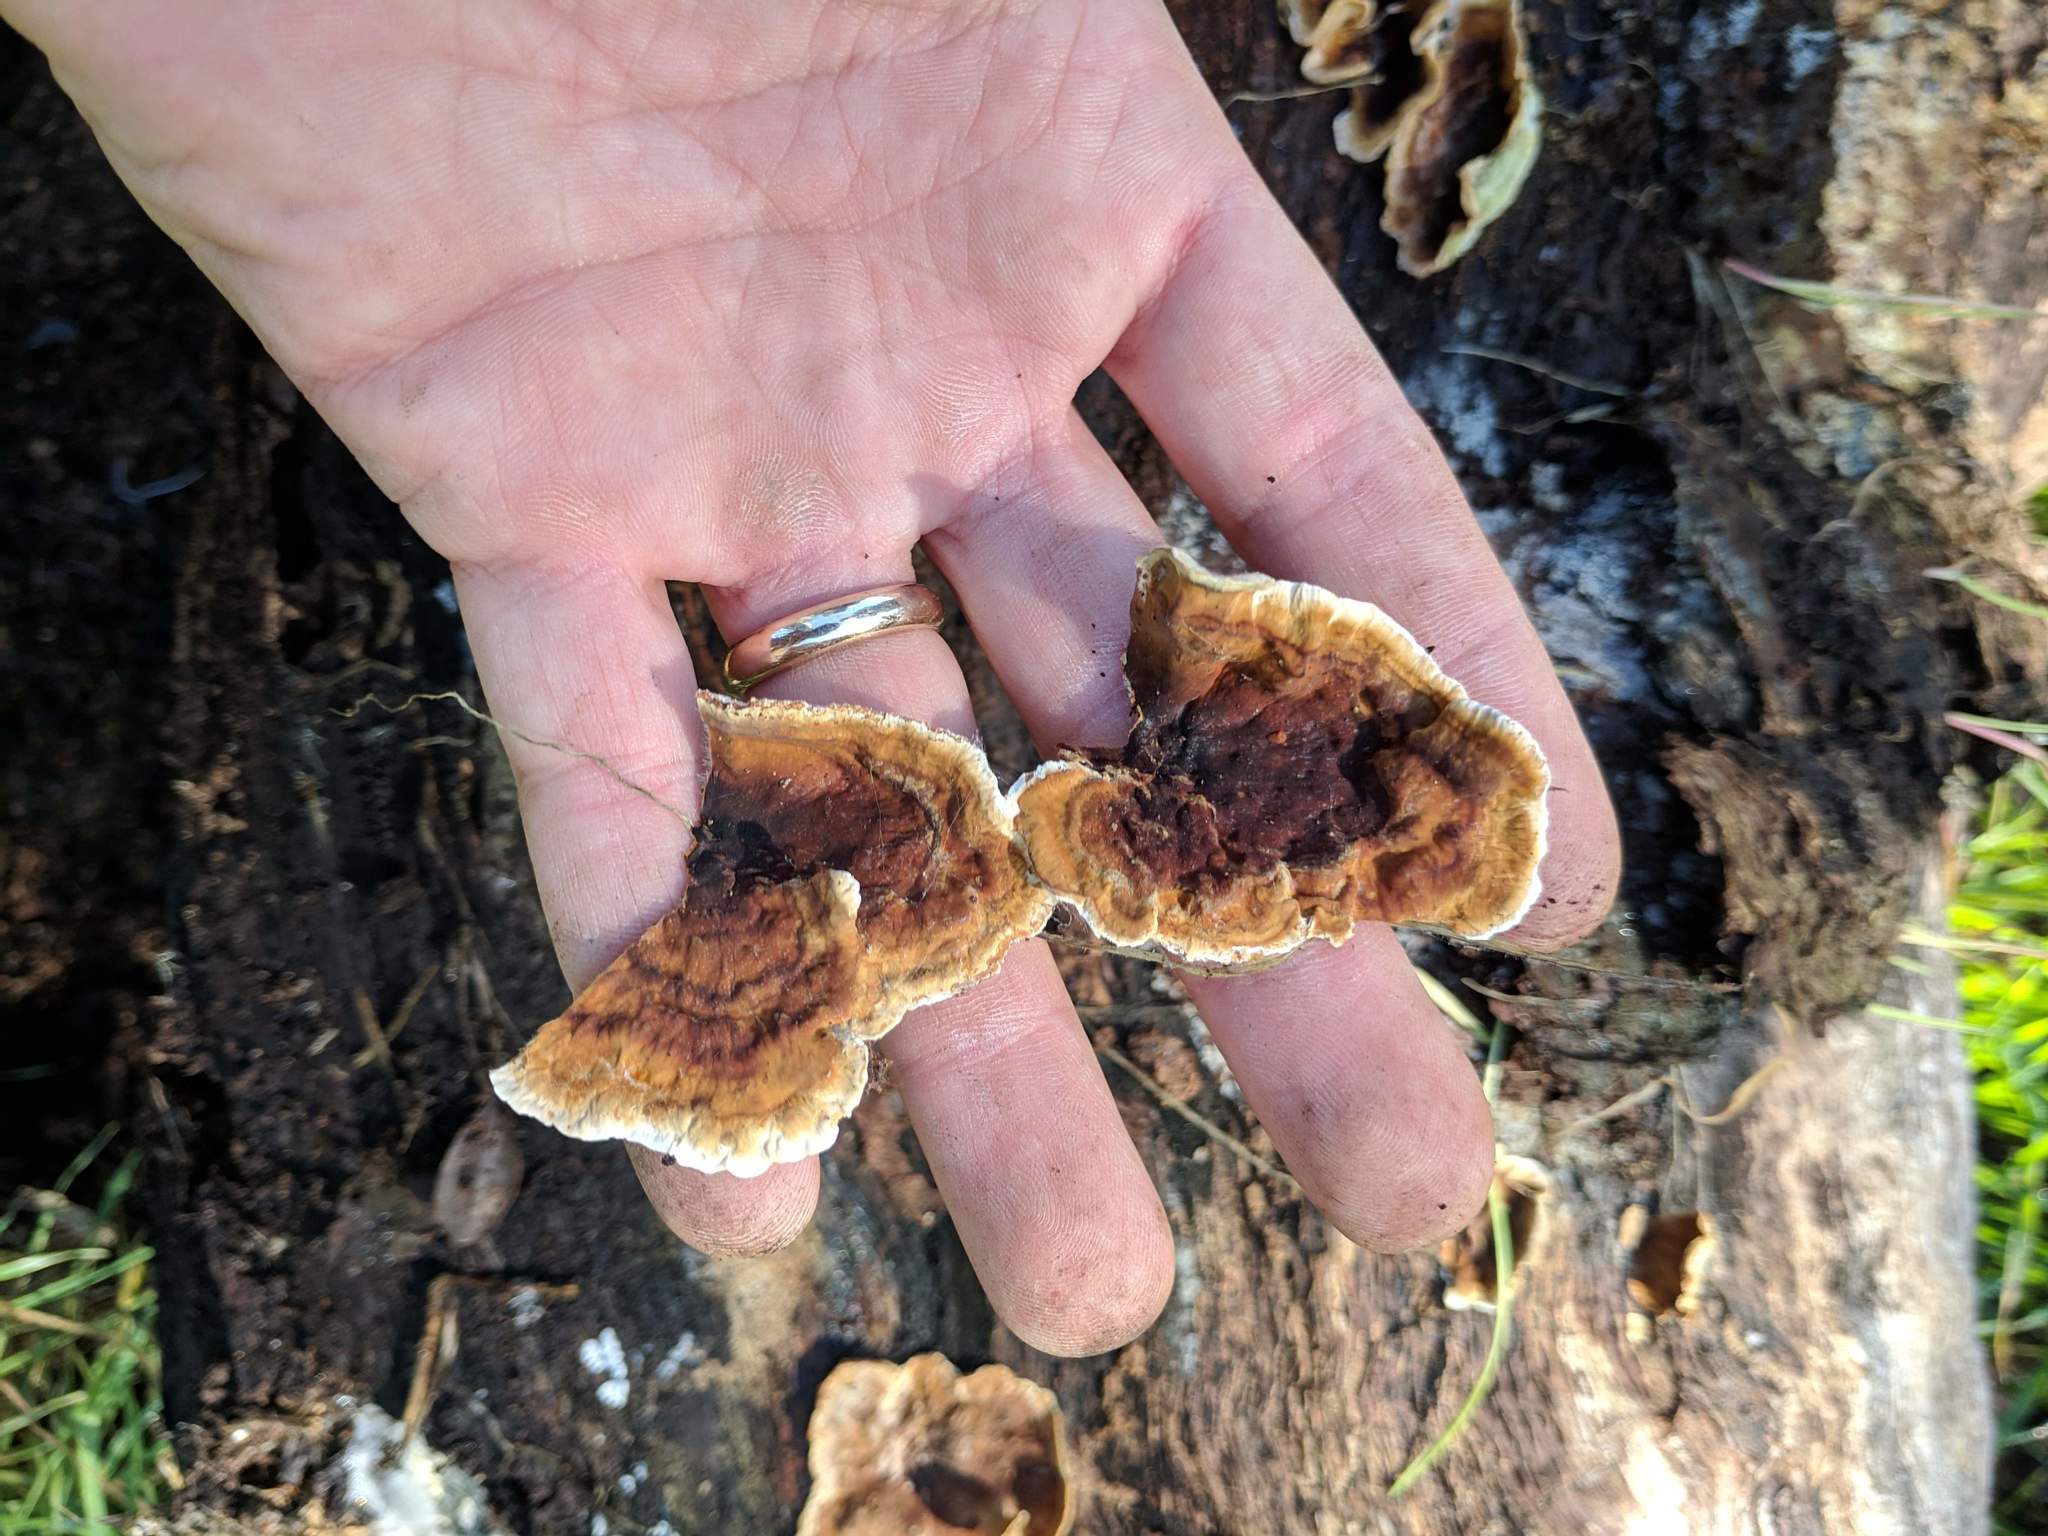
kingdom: Fungi
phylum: Basidiomycota
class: Agaricomycetes
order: Russulales
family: Stereaceae
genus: Stereum
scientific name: Stereum hirsutum
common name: Hairy curtain crust
